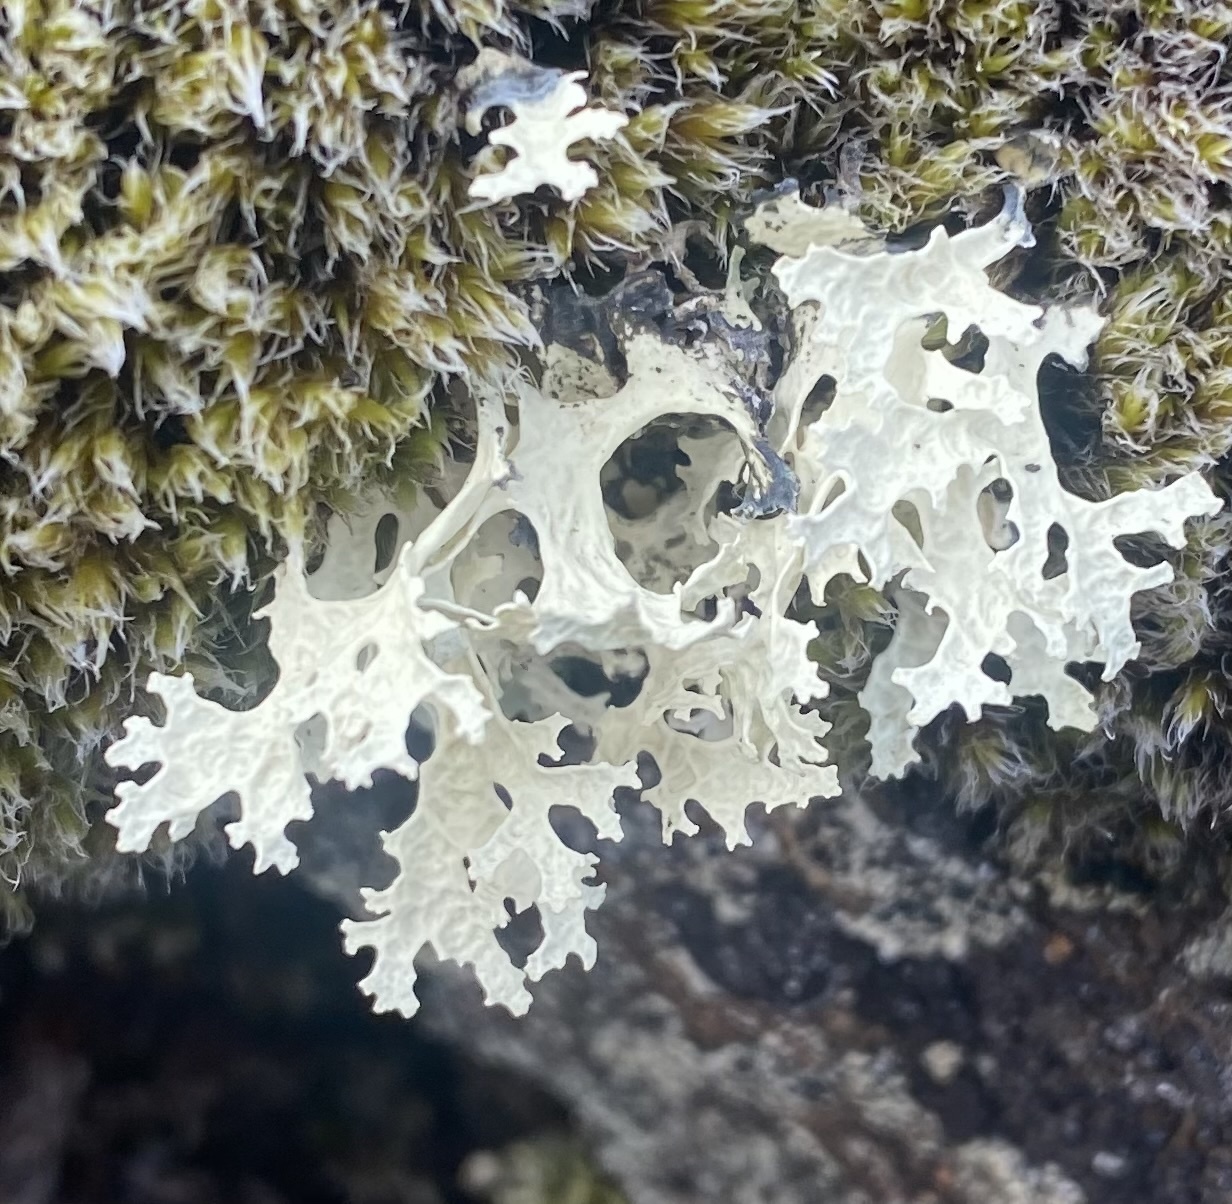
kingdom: Fungi
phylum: Ascomycota
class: Lecanoromycetes
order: Lecanorales
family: Parmeliaceae
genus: Nephromopsis
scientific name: Nephromopsis nivalis
